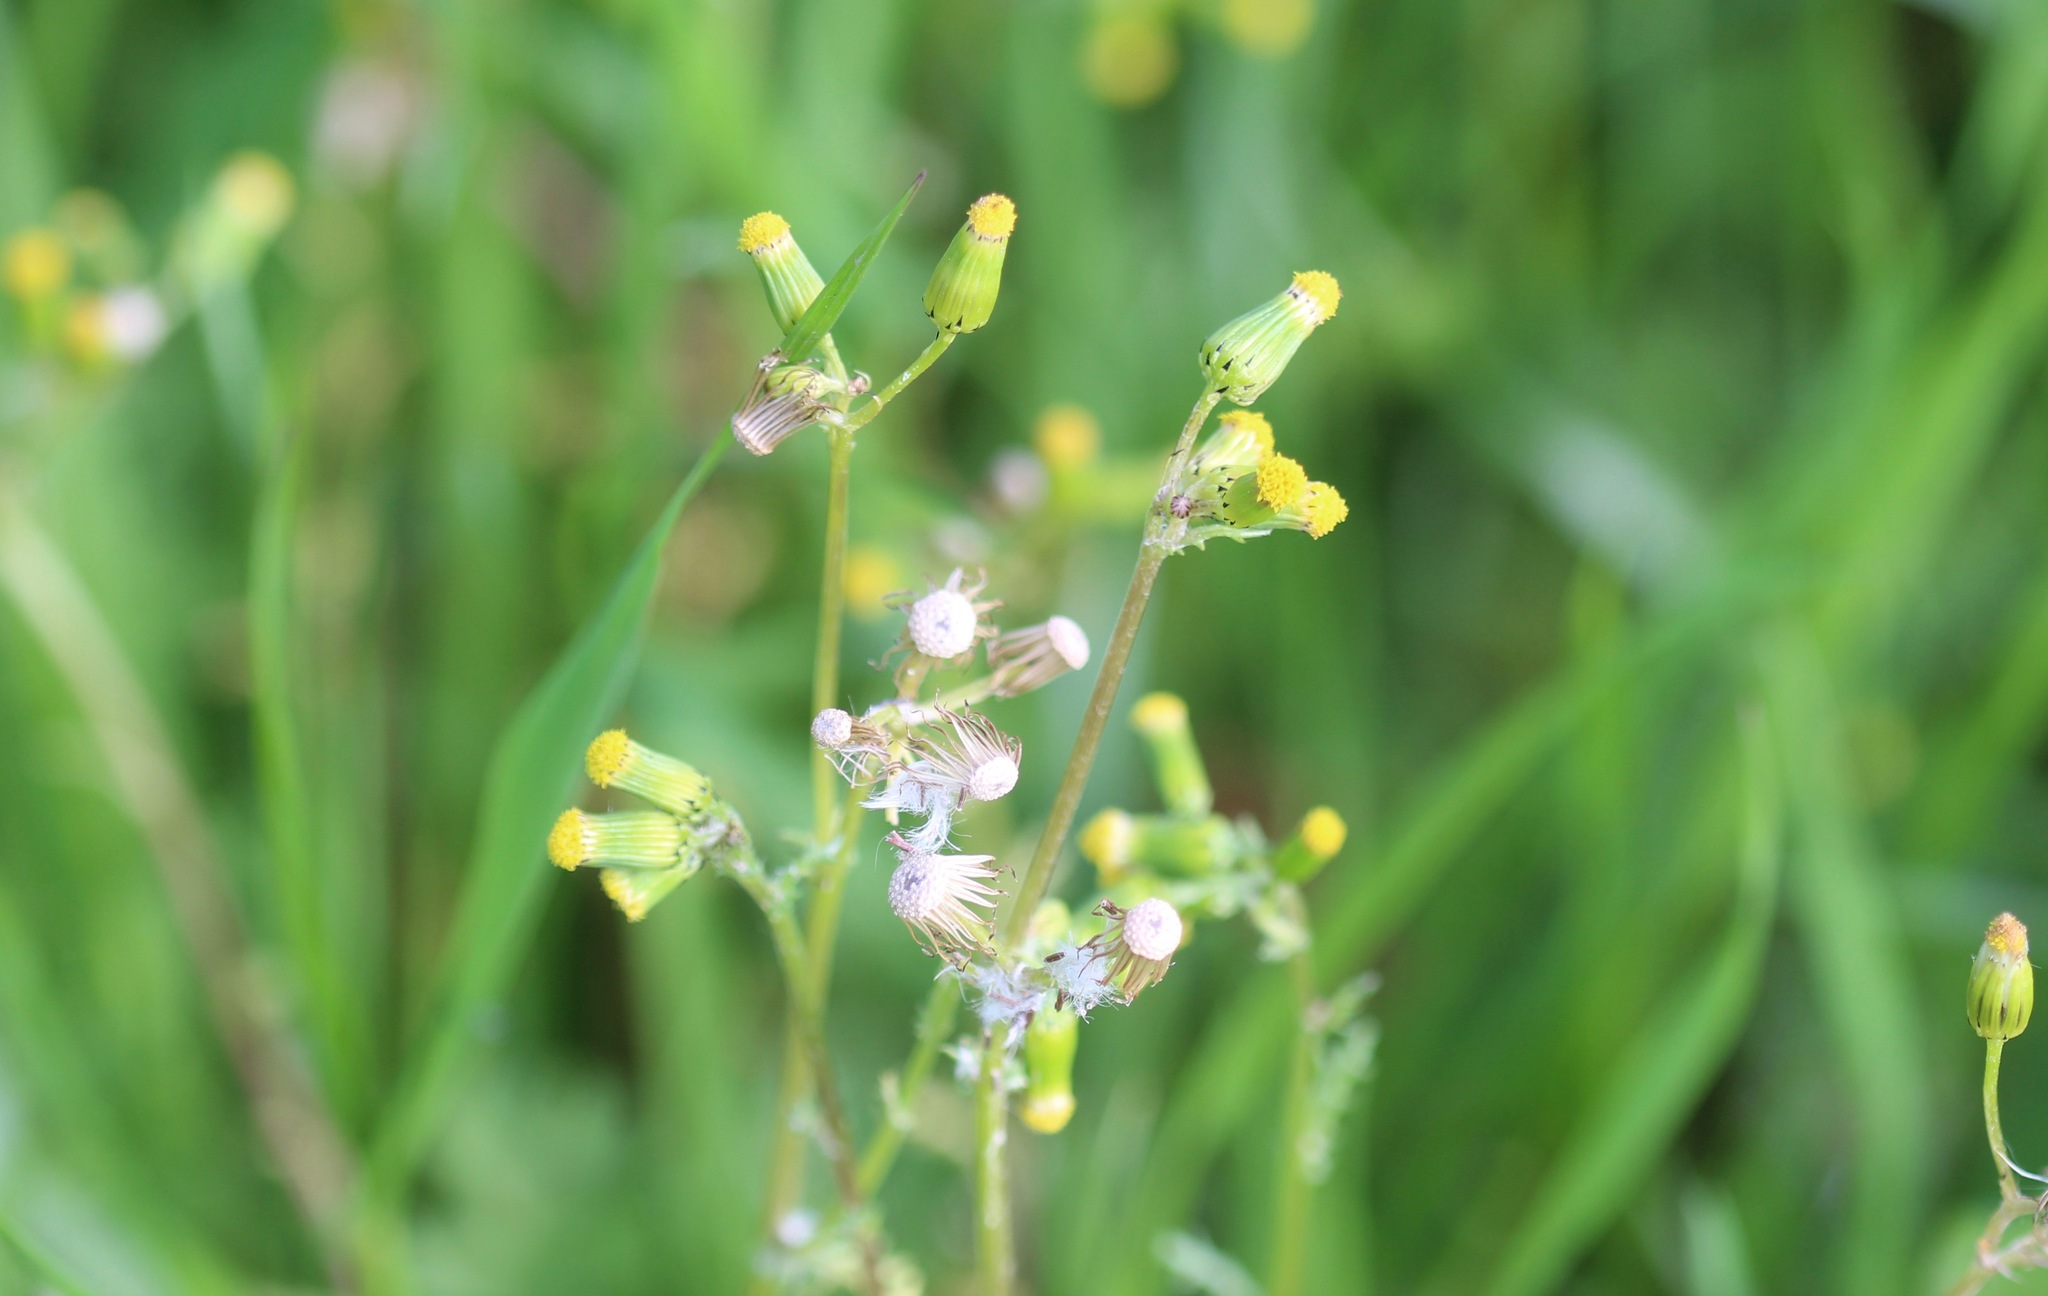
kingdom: Plantae
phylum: Tracheophyta
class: Magnoliopsida
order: Asterales
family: Asteraceae
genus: Senecio
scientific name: Senecio vulgaris
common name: Old-man-in-the-spring
